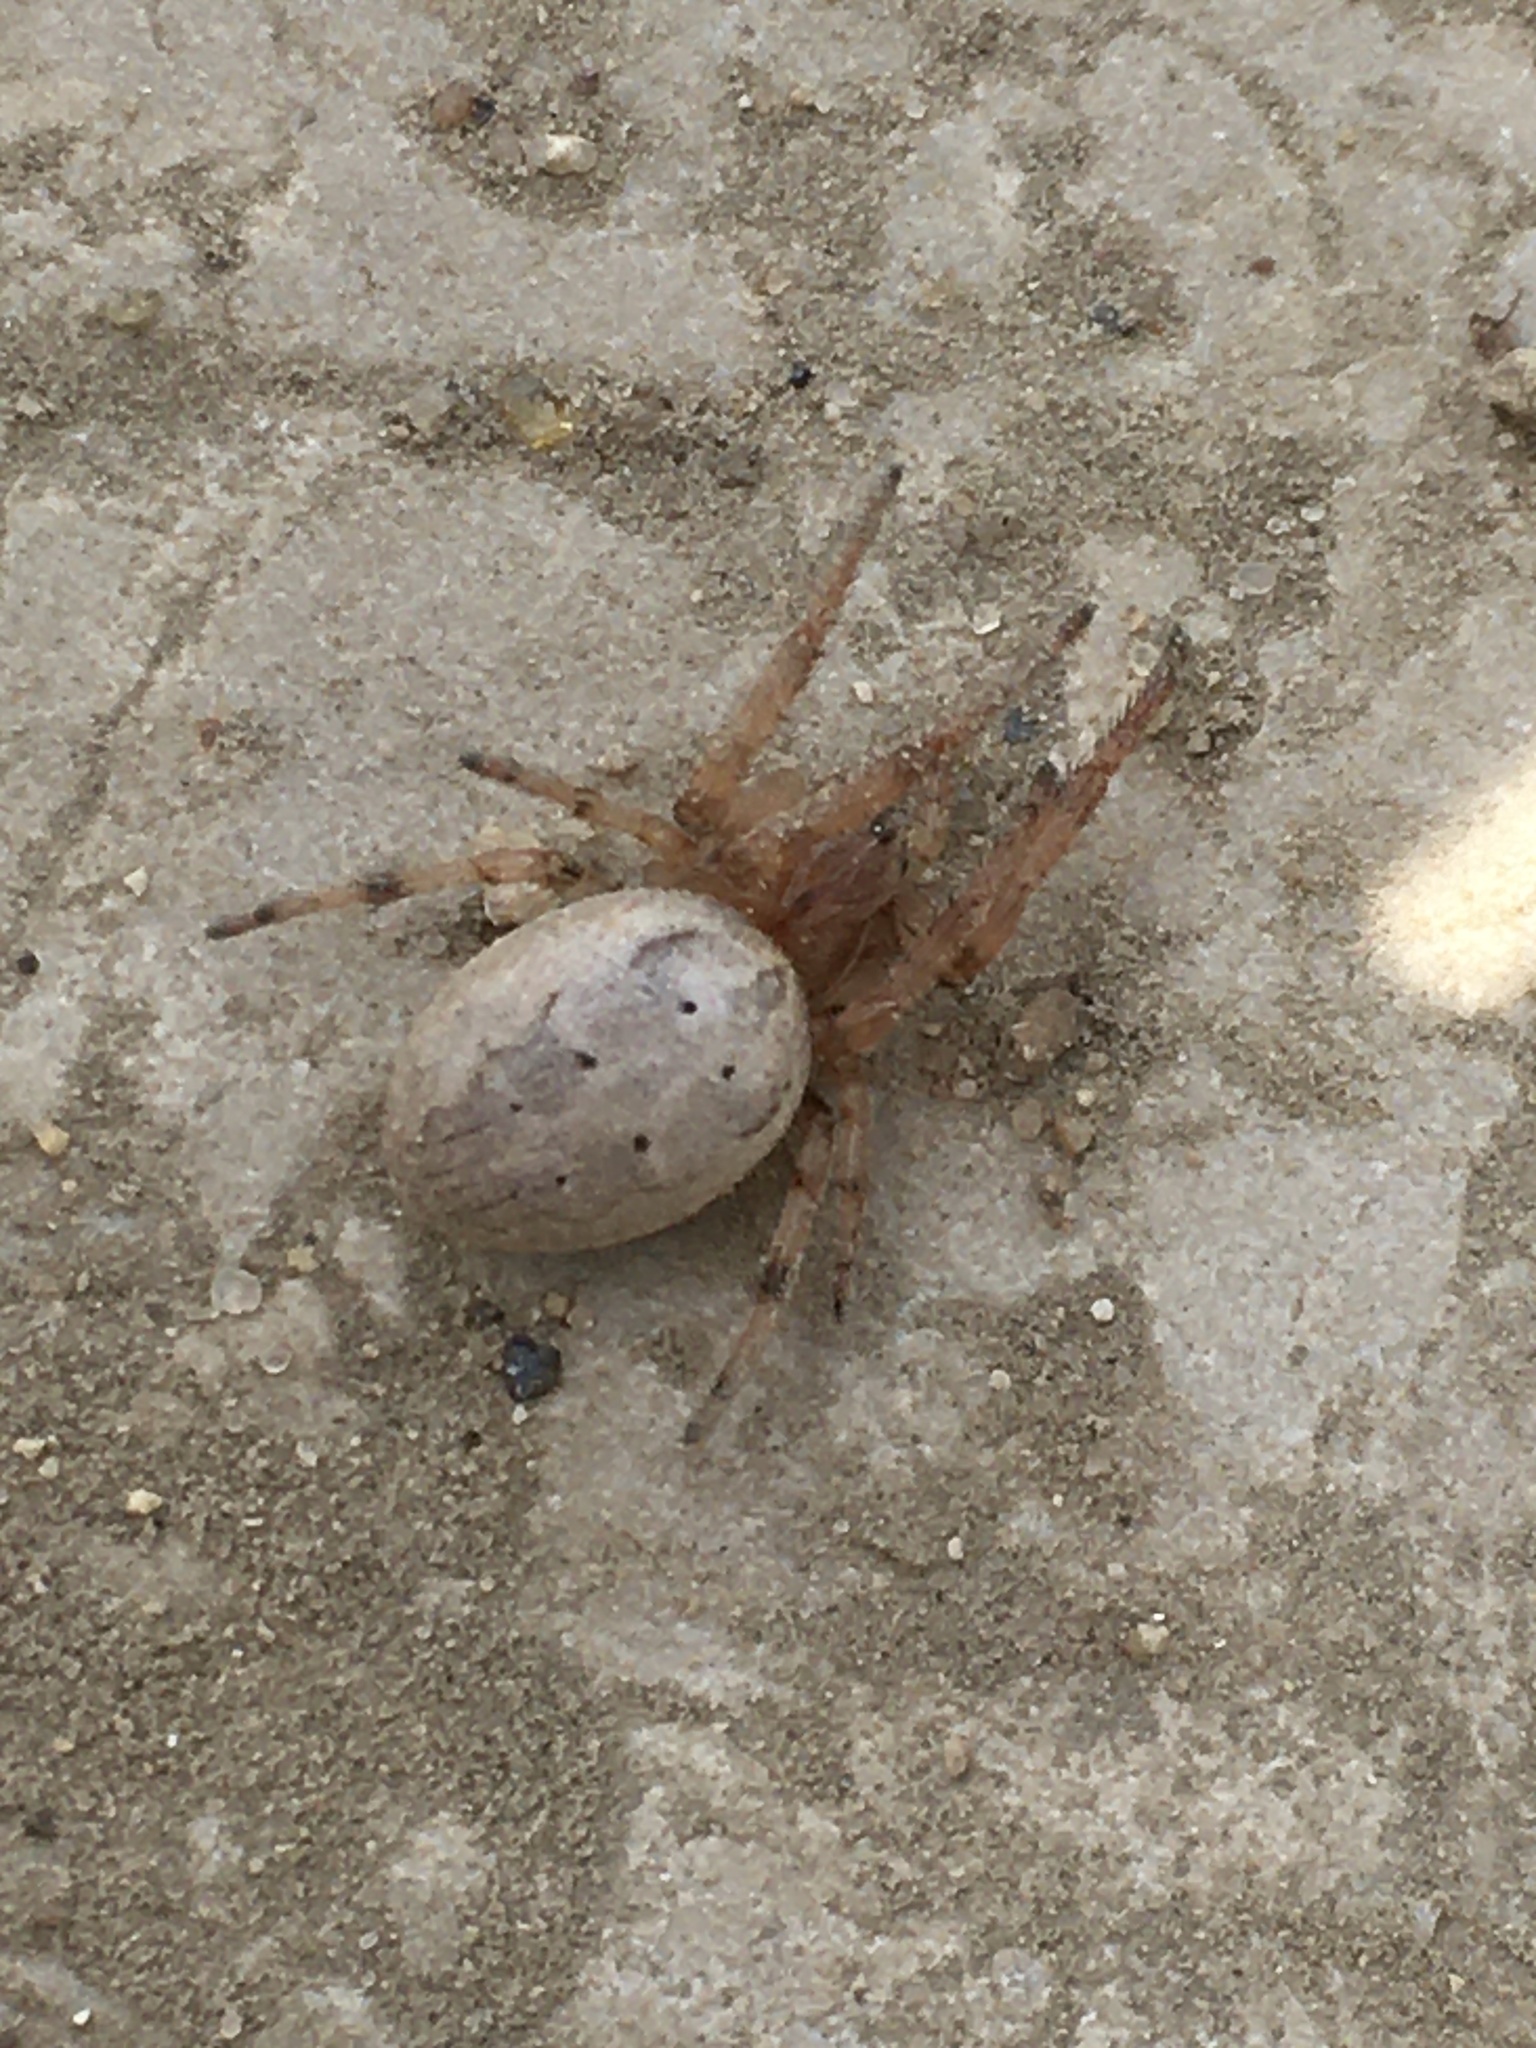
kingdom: Animalia
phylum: Arthropoda
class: Arachnida
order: Araneae
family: Araneidae
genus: Larinioides
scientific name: Larinioides cornutus
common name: Furrow orbweaver
